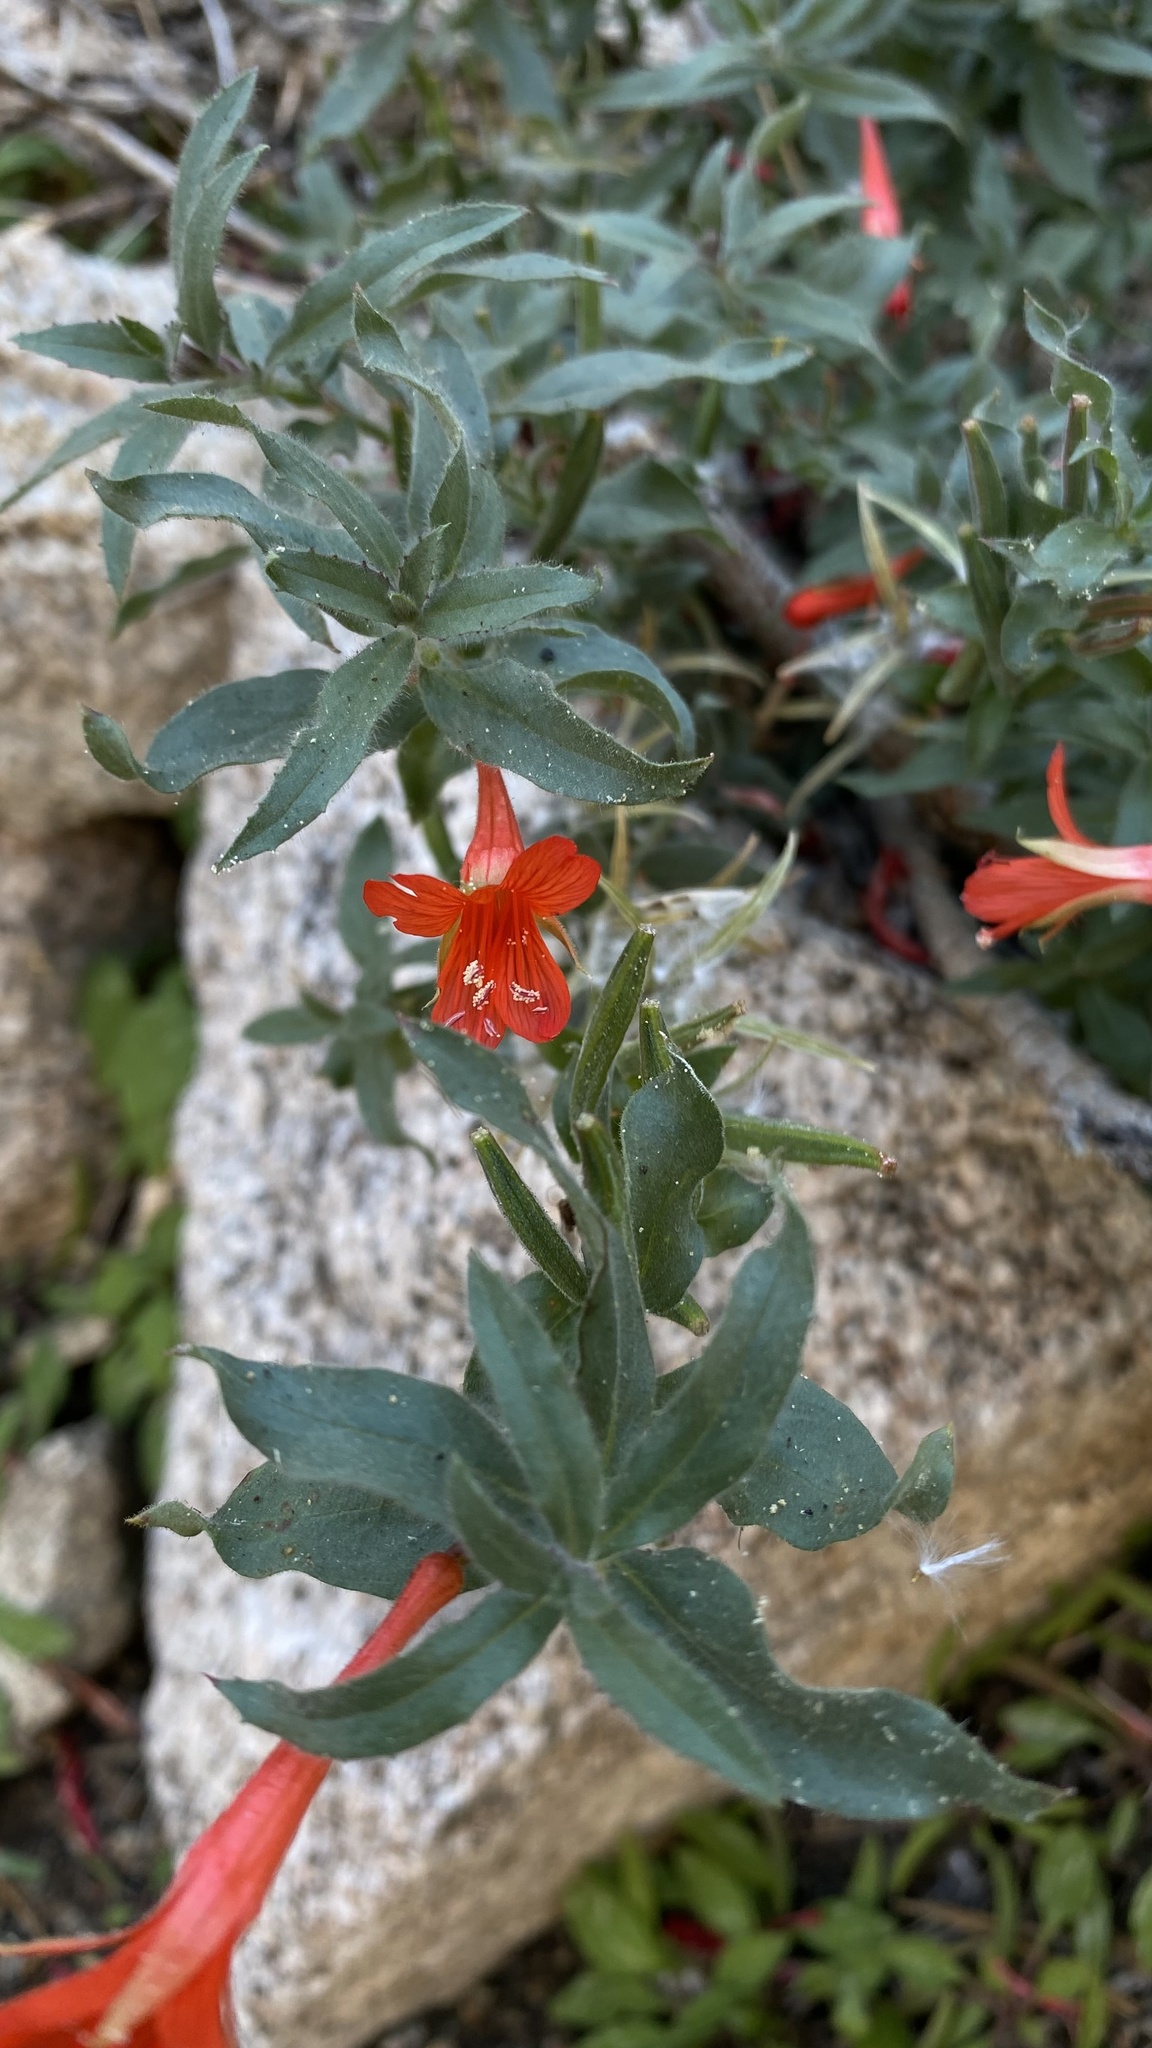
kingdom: Plantae
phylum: Tracheophyta
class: Magnoliopsida
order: Myrtales
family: Onagraceae
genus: Epilobium
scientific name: Epilobium canum
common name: California-fuchsia
